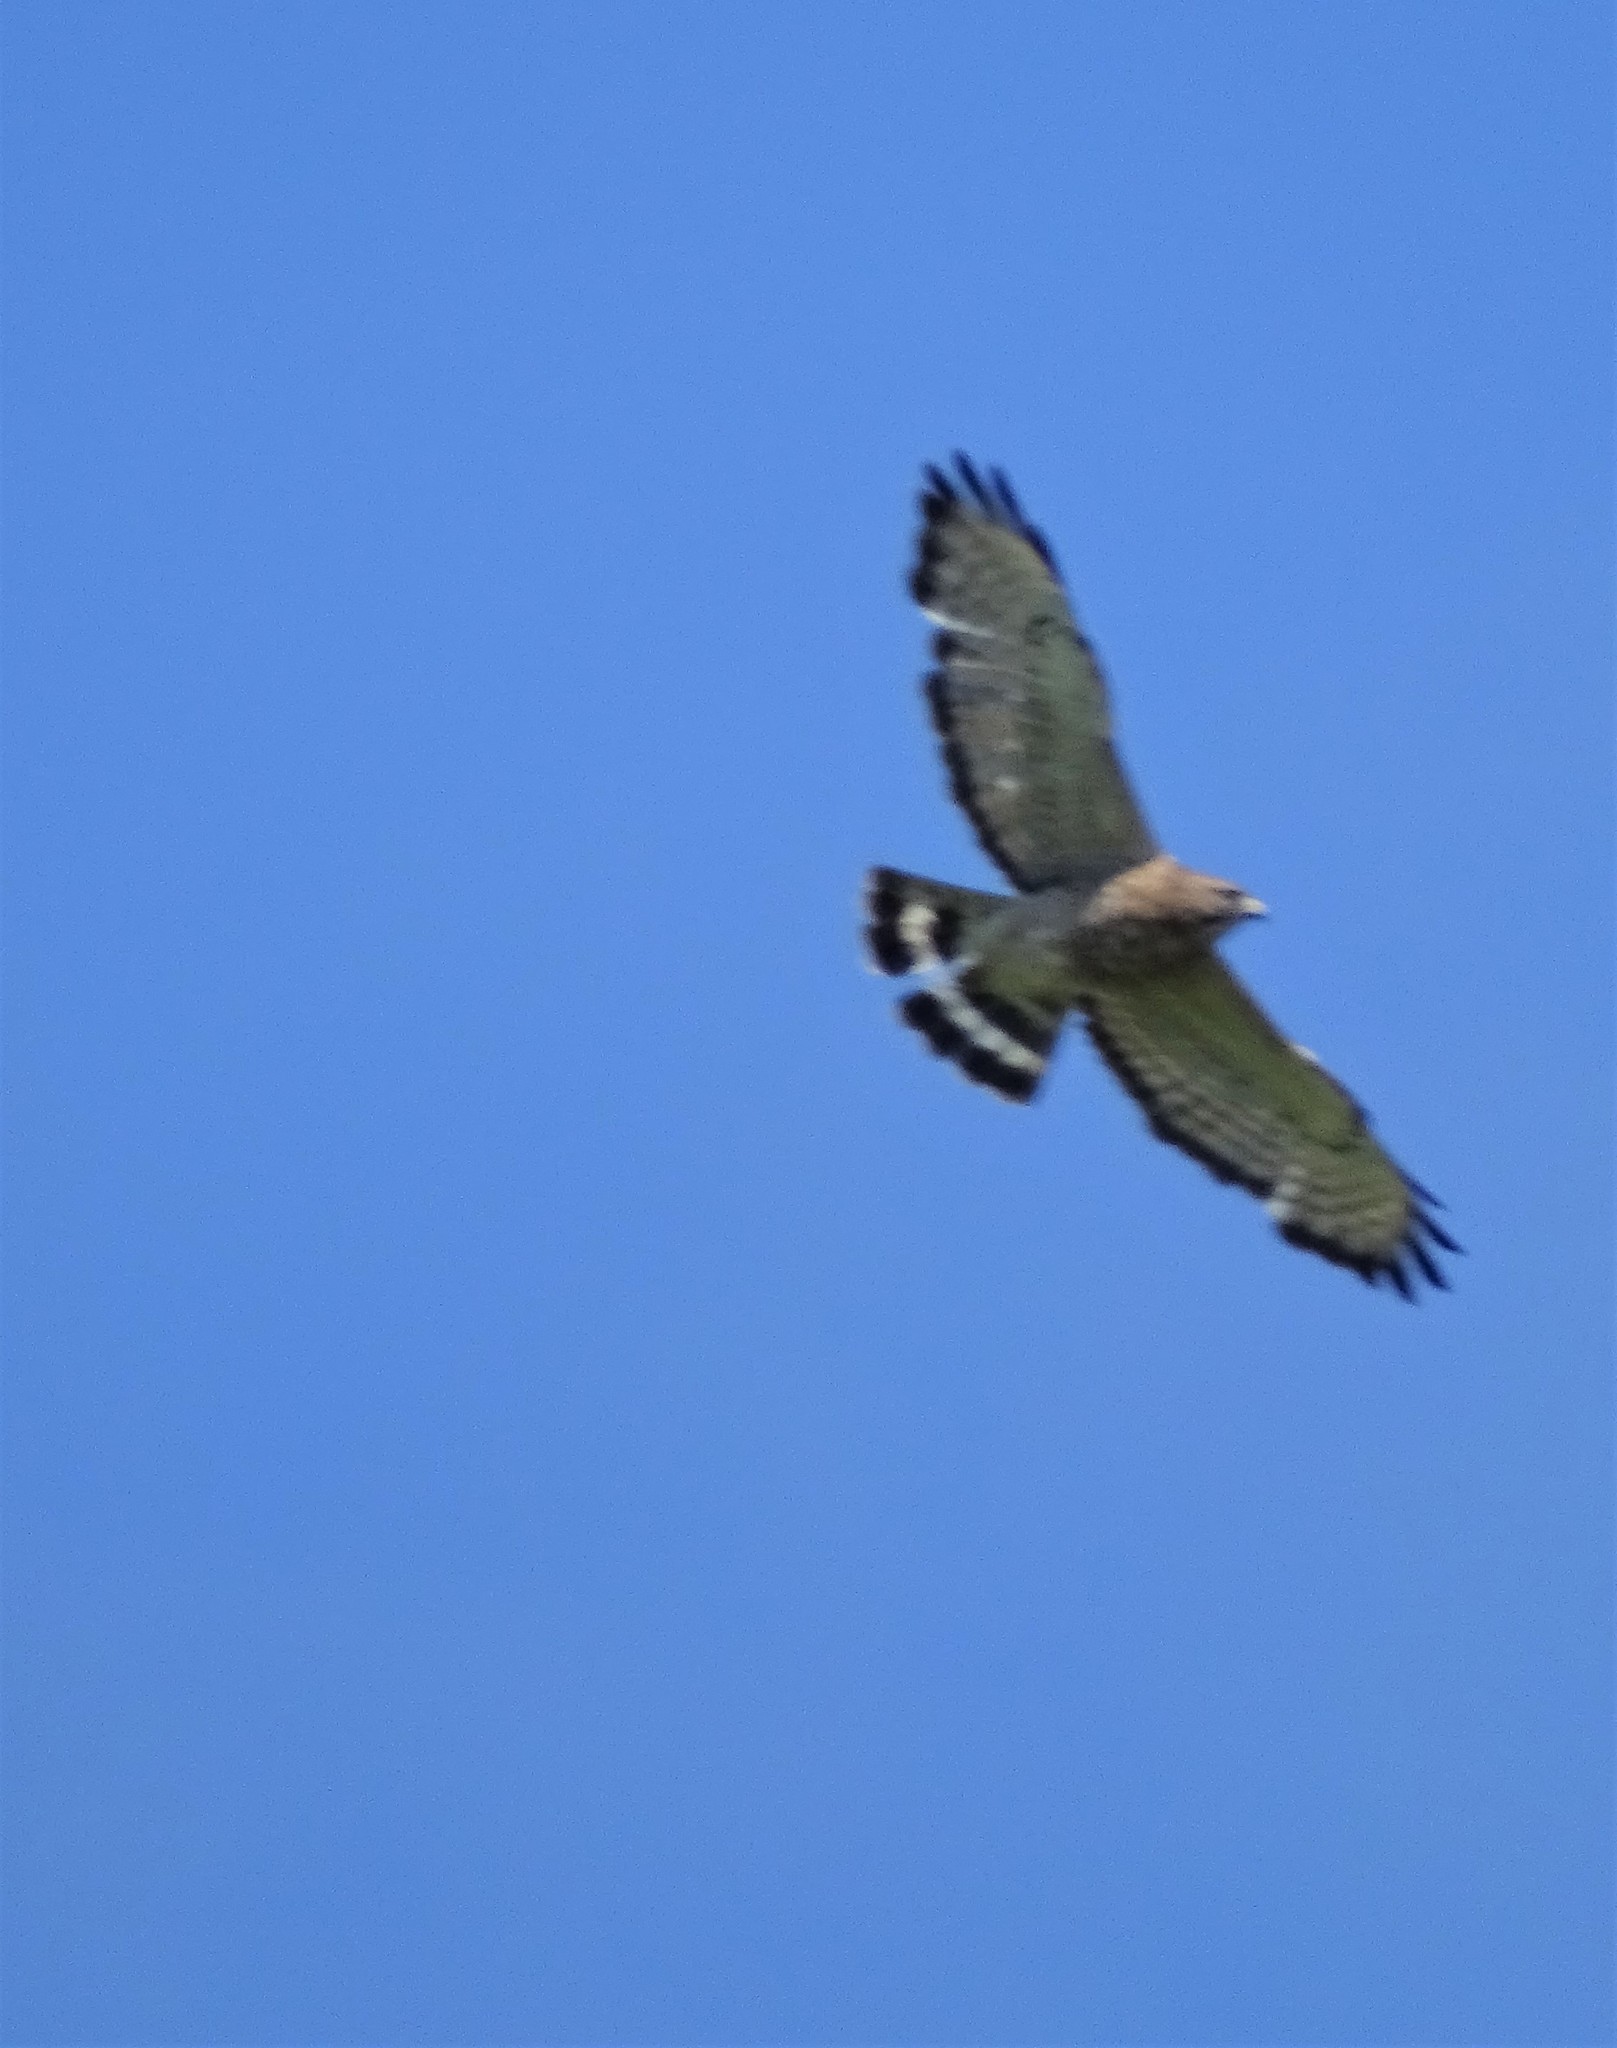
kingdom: Animalia
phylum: Chordata
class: Aves
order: Accipitriformes
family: Accipitridae
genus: Buteo
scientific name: Buteo platypterus
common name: Broad-winged hawk
